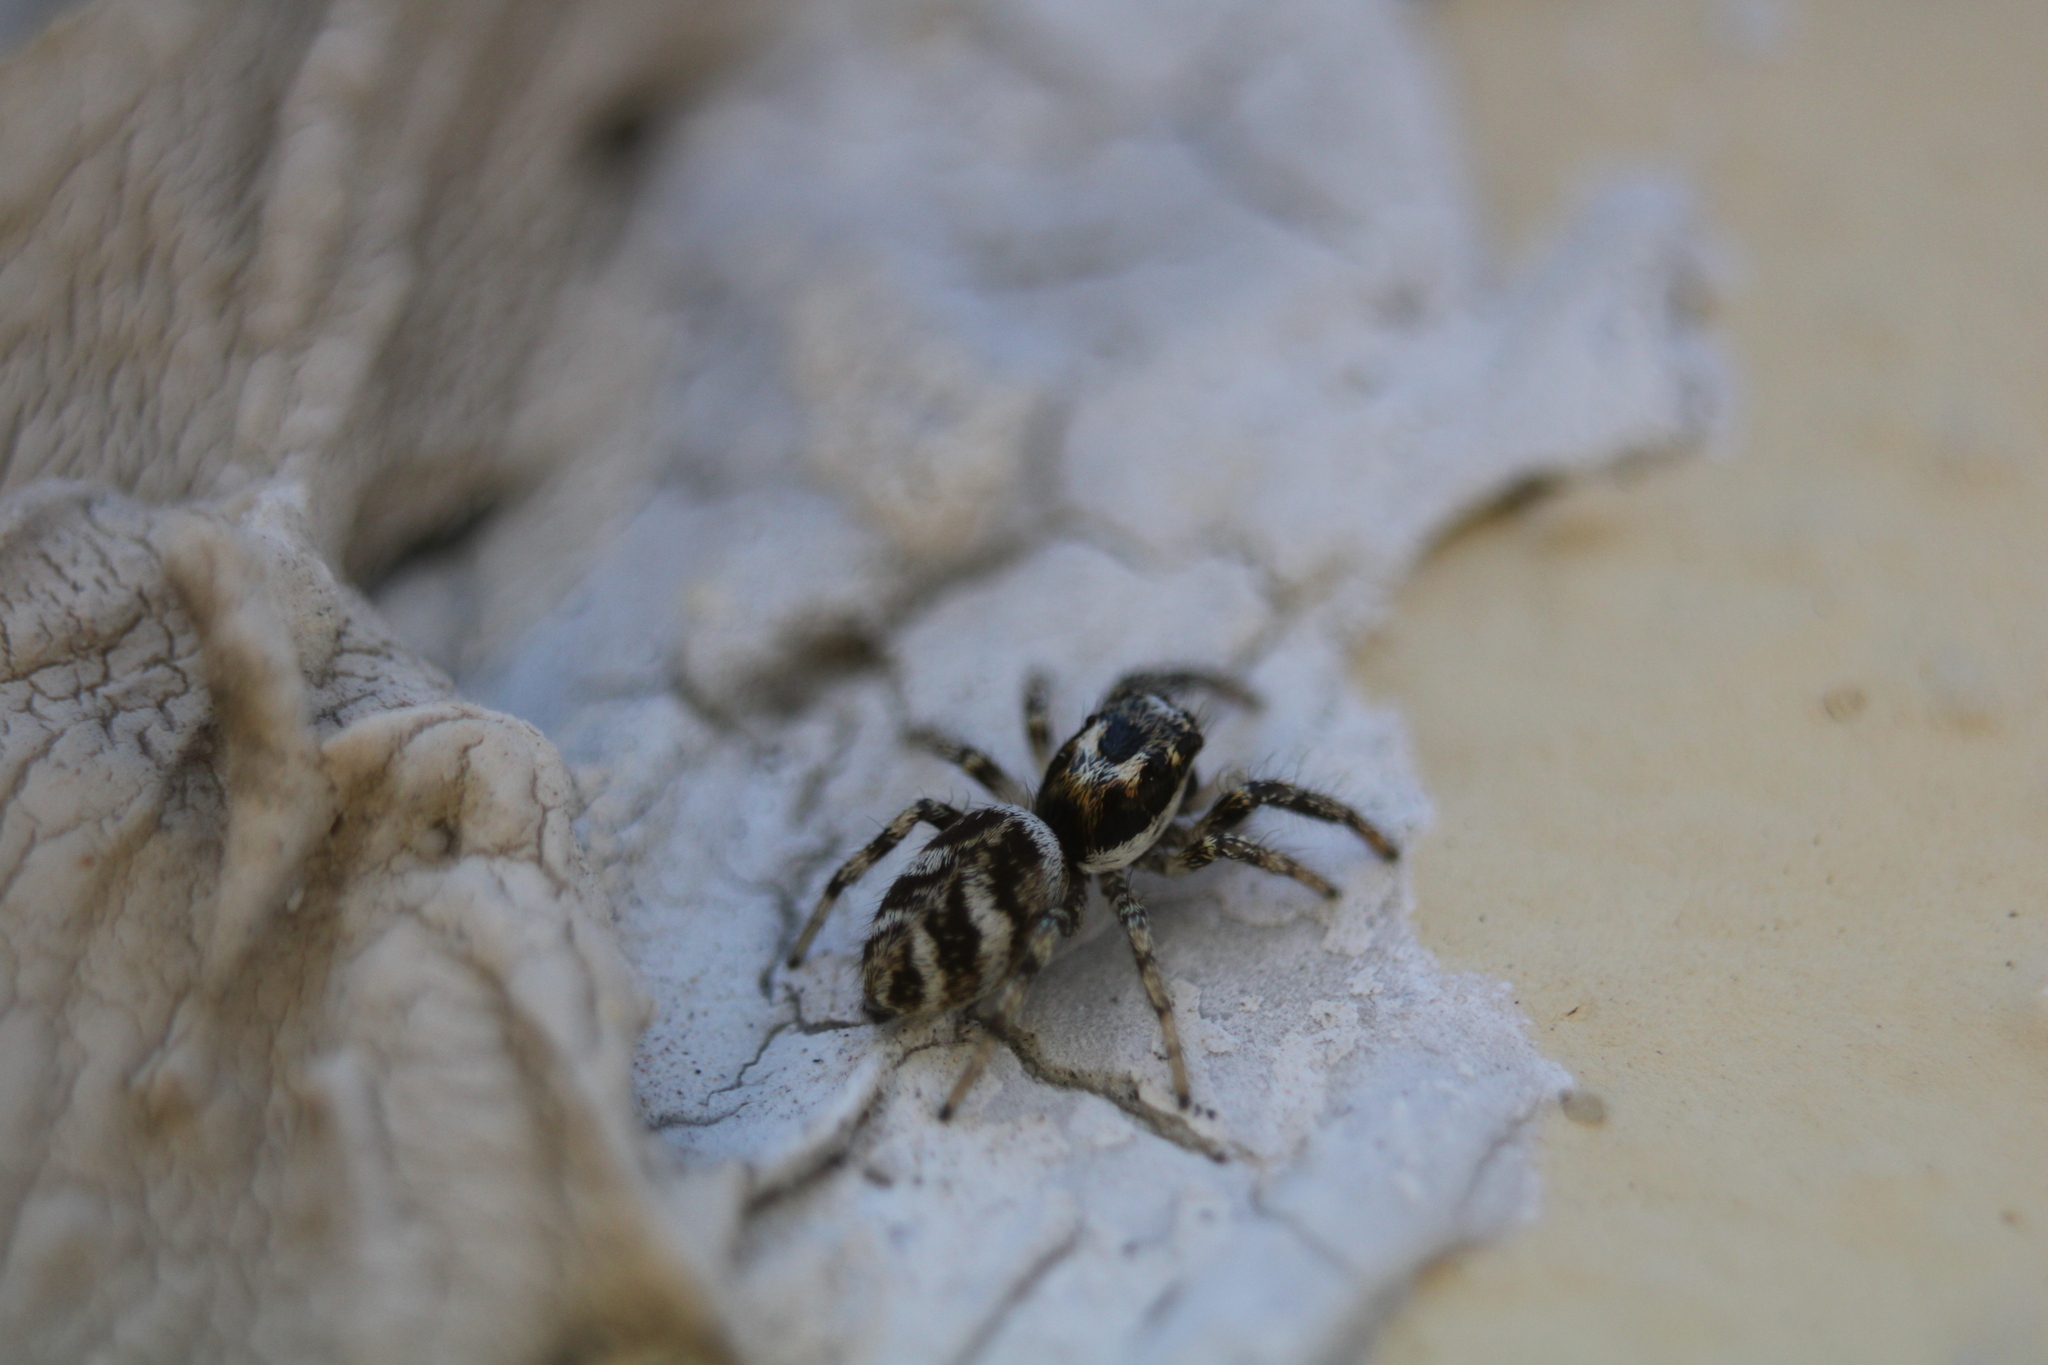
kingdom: Animalia
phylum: Arthropoda
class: Arachnida
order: Araneae
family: Salticidae
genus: Salticus
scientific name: Salticus scenicus
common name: Zebra jumper
